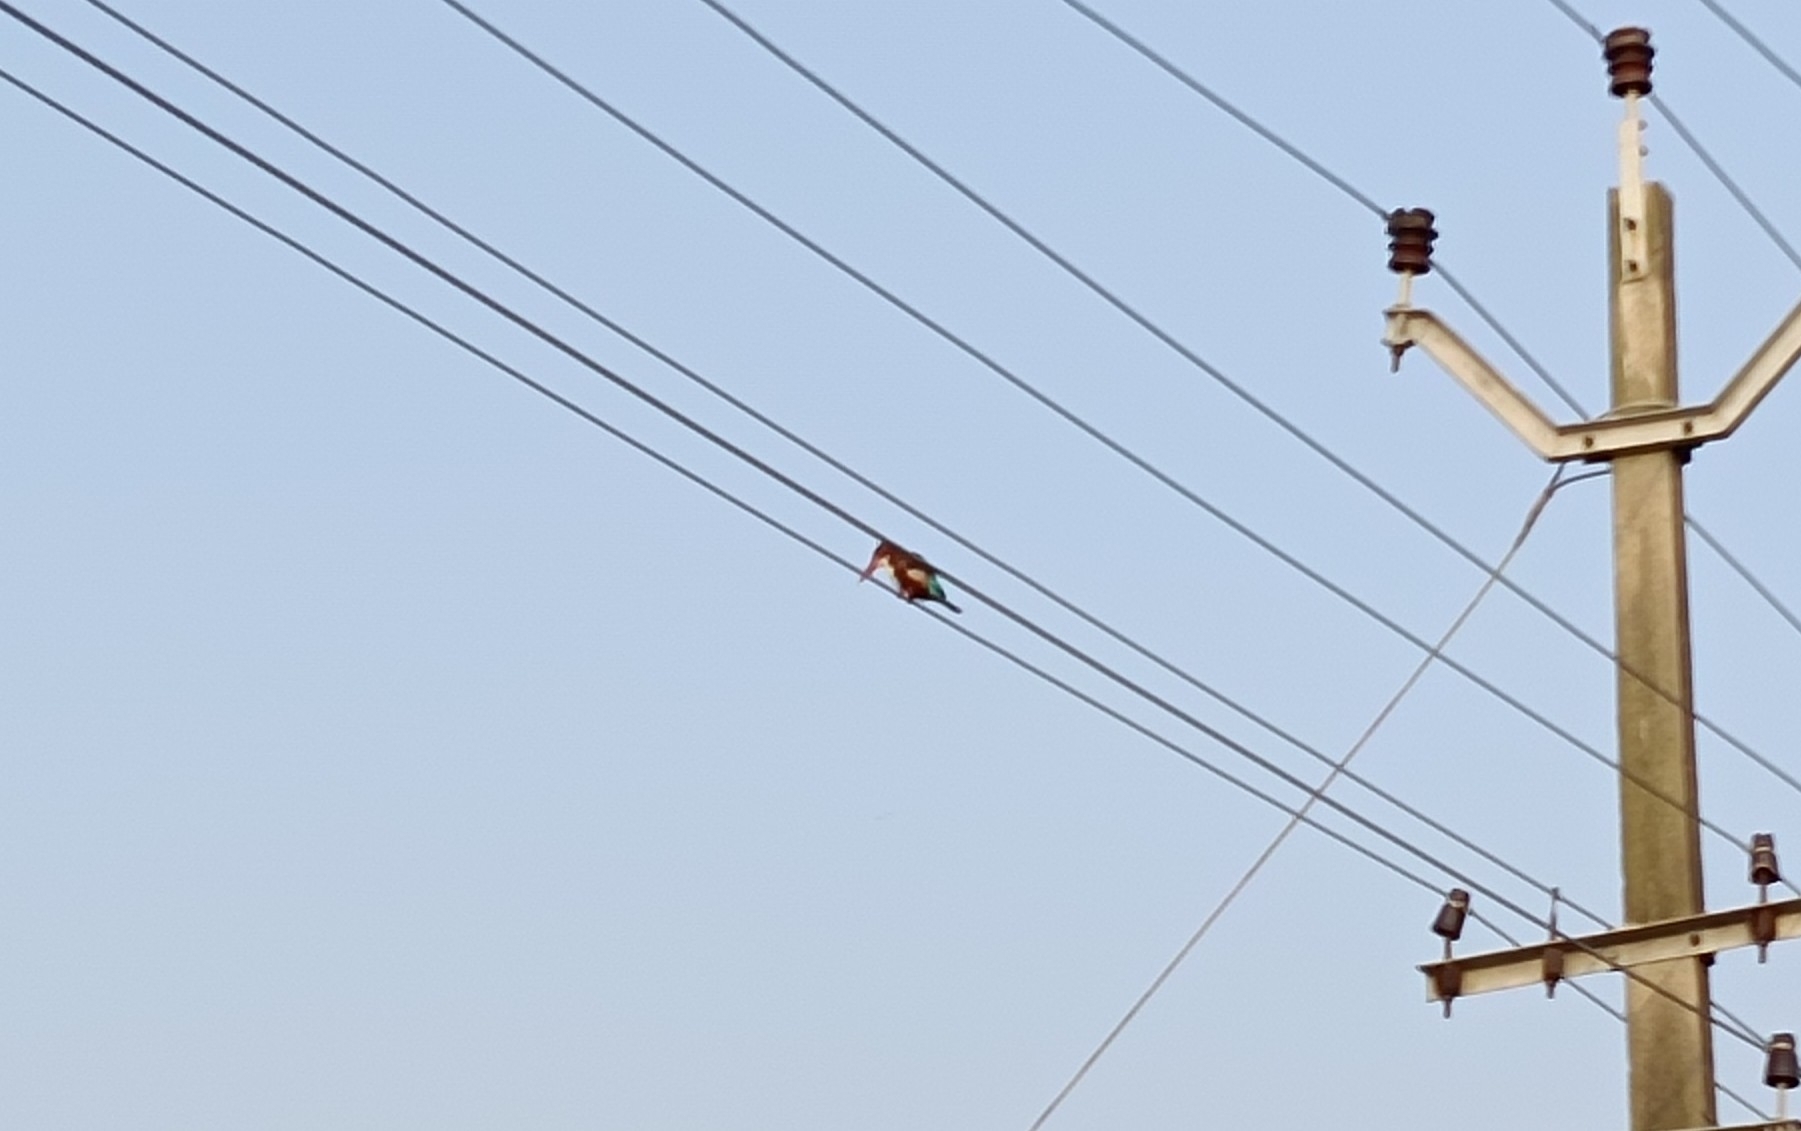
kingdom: Animalia
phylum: Chordata
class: Aves
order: Coraciiformes
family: Alcedinidae
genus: Halcyon
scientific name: Halcyon smyrnensis
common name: White-throated kingfisher
